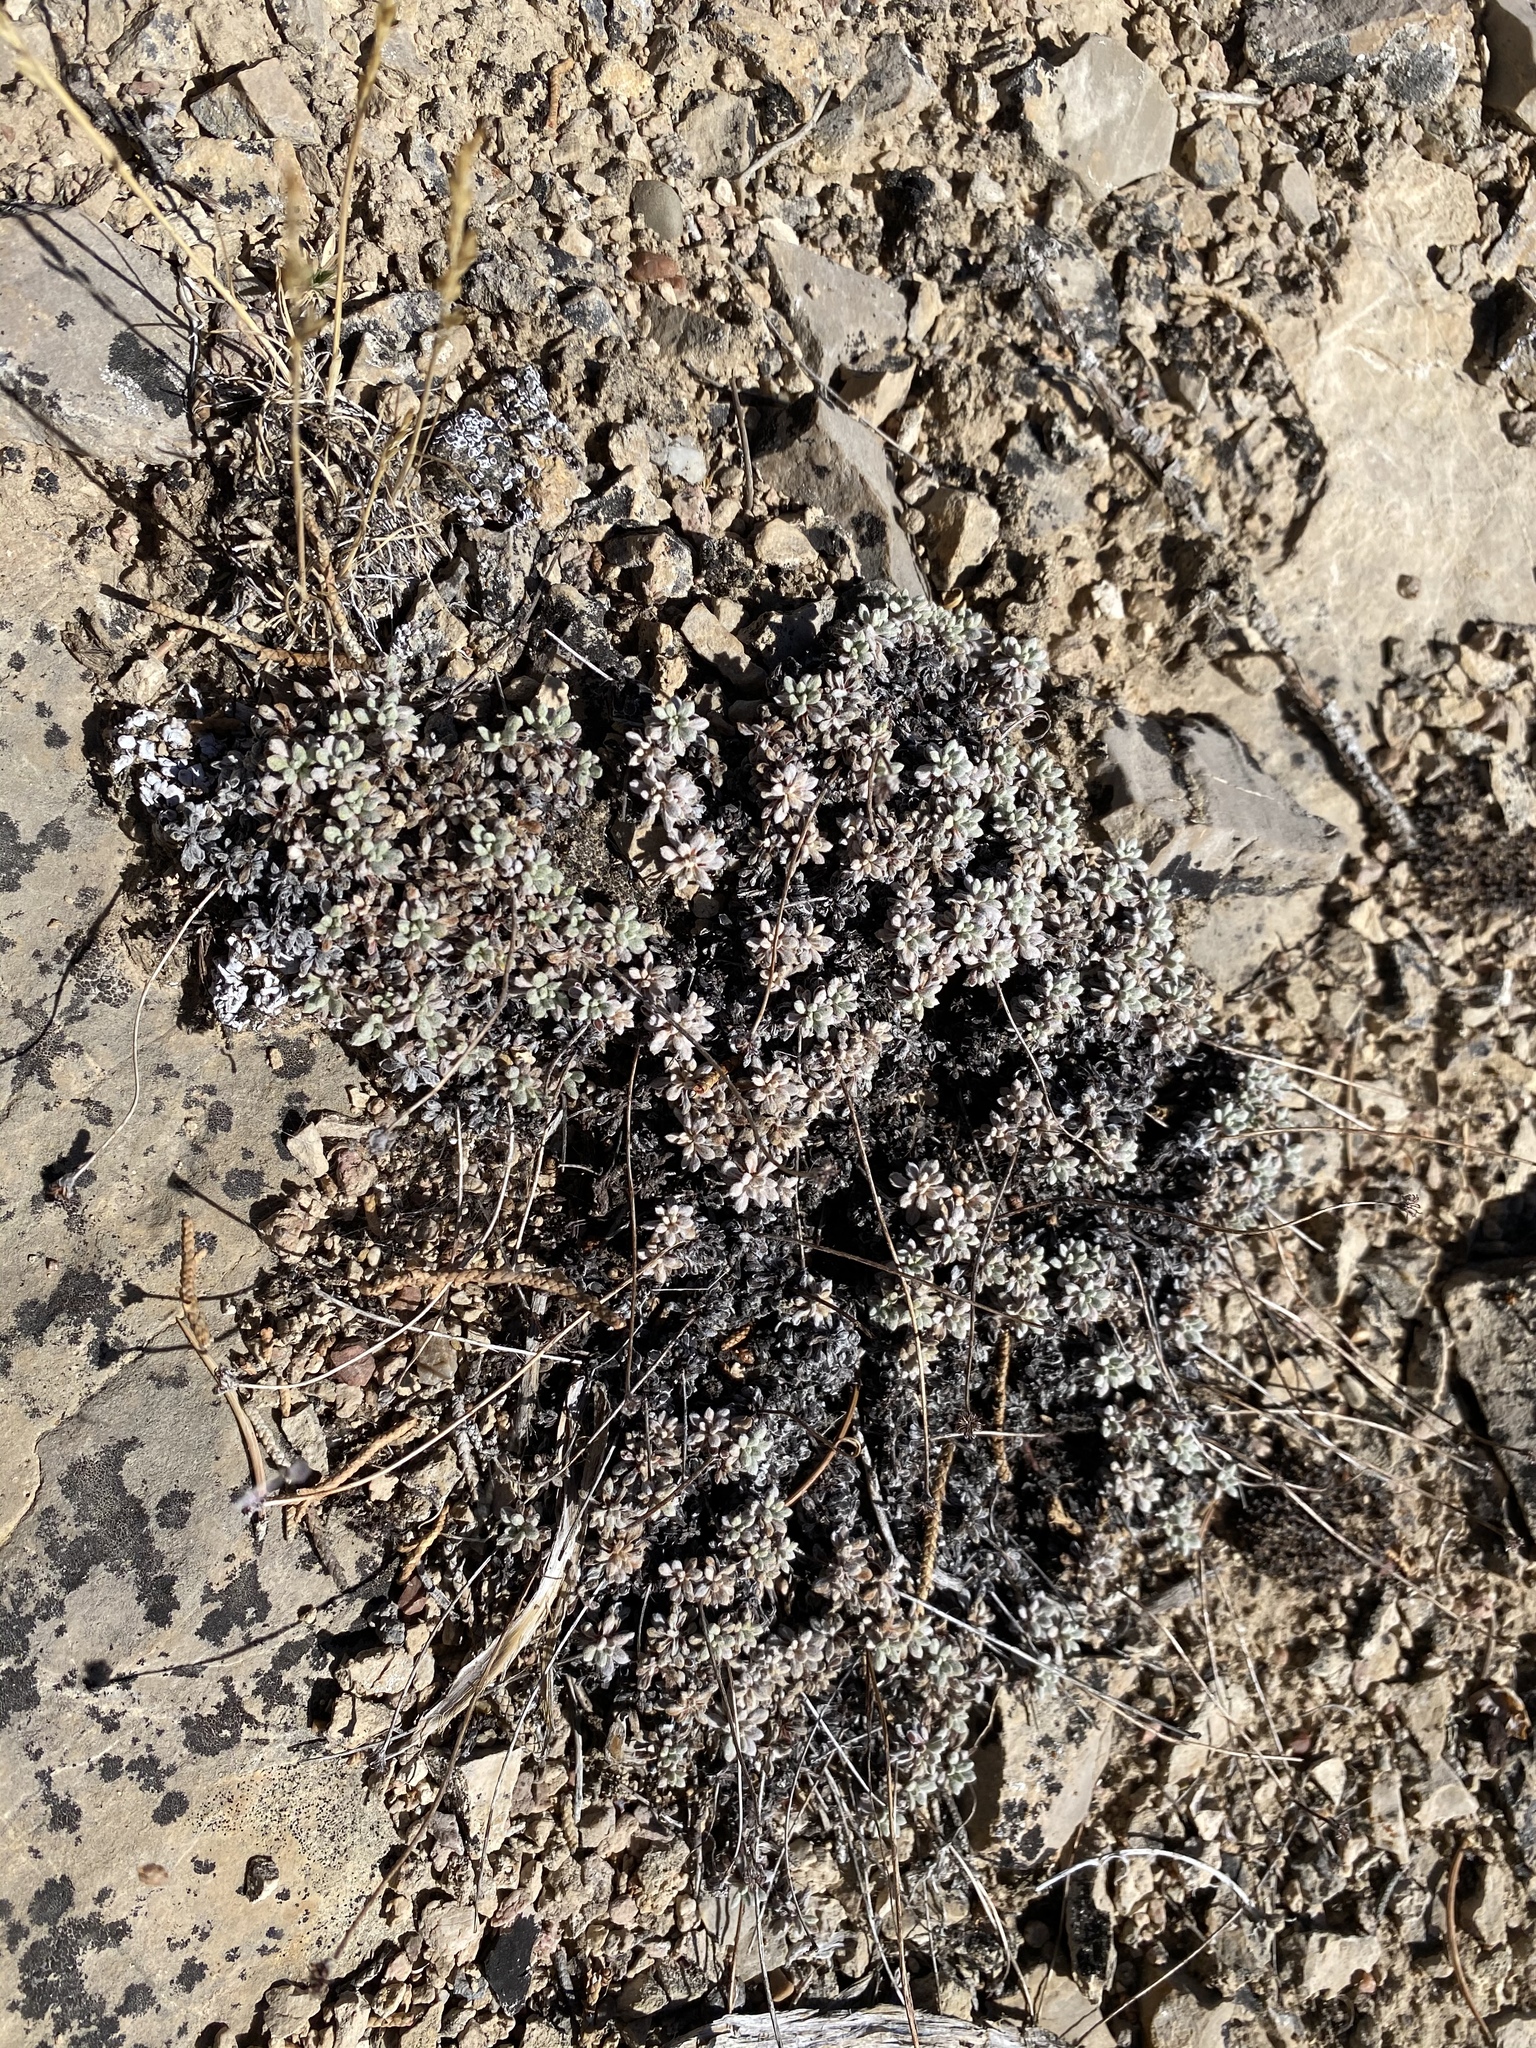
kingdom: Plantae
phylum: Tracheophyta
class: Magnoliopsida
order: Caryophyllales
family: Polygonaceae
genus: Eriogonum
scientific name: Eriogonum caespitosum
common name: Matted wild buckwheat
